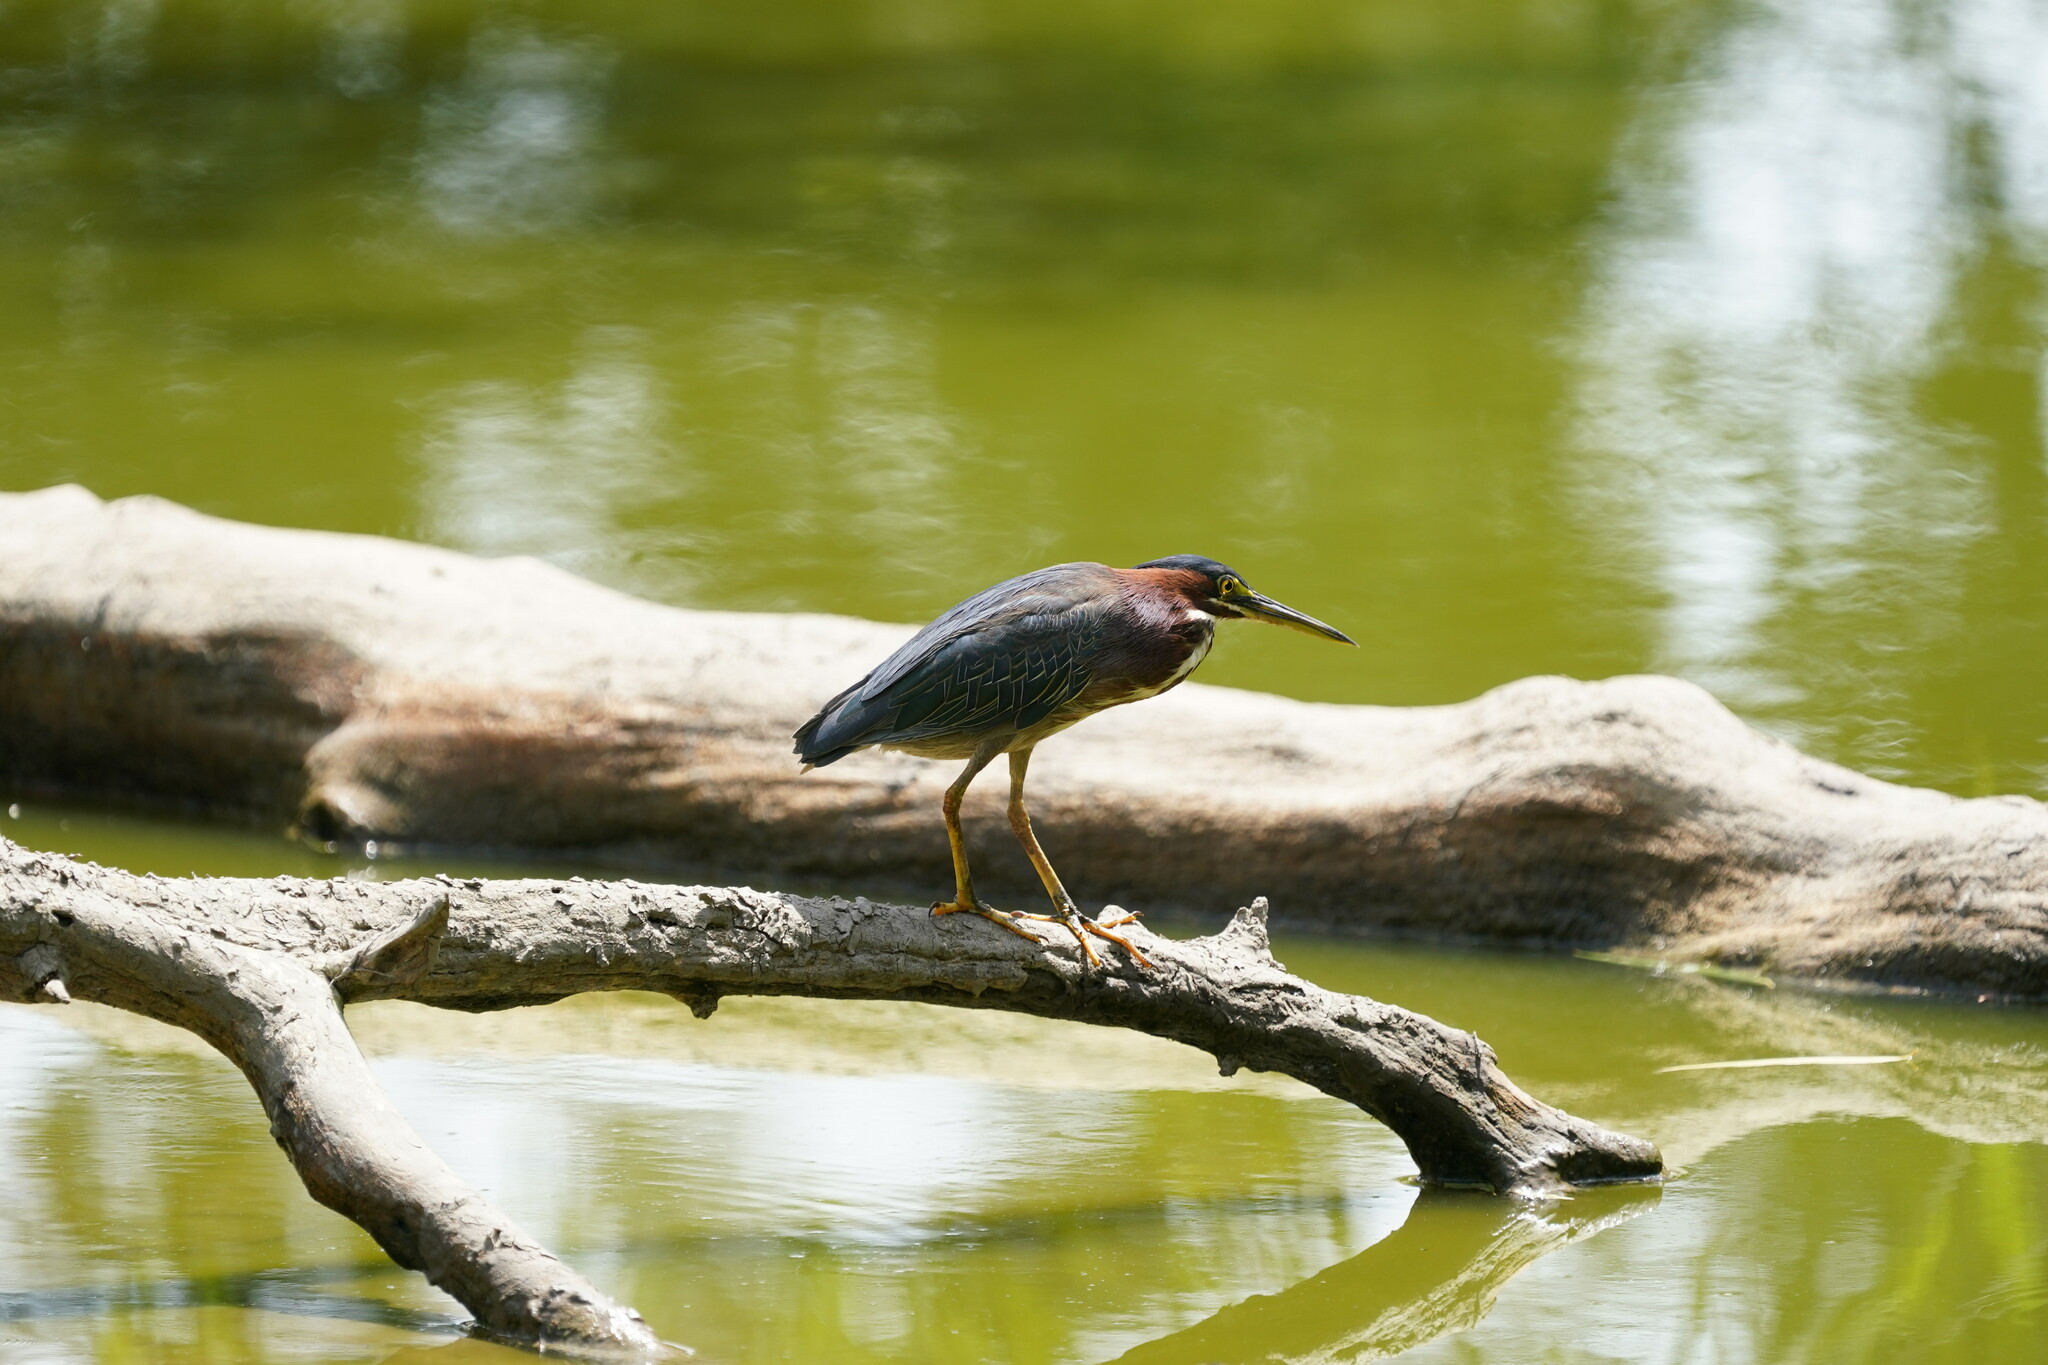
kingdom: Animalia
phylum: Chordata
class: Aves
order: Pelecaniformes
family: Ardeidae
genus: Butorides
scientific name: Butorides virescens
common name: Green heron
